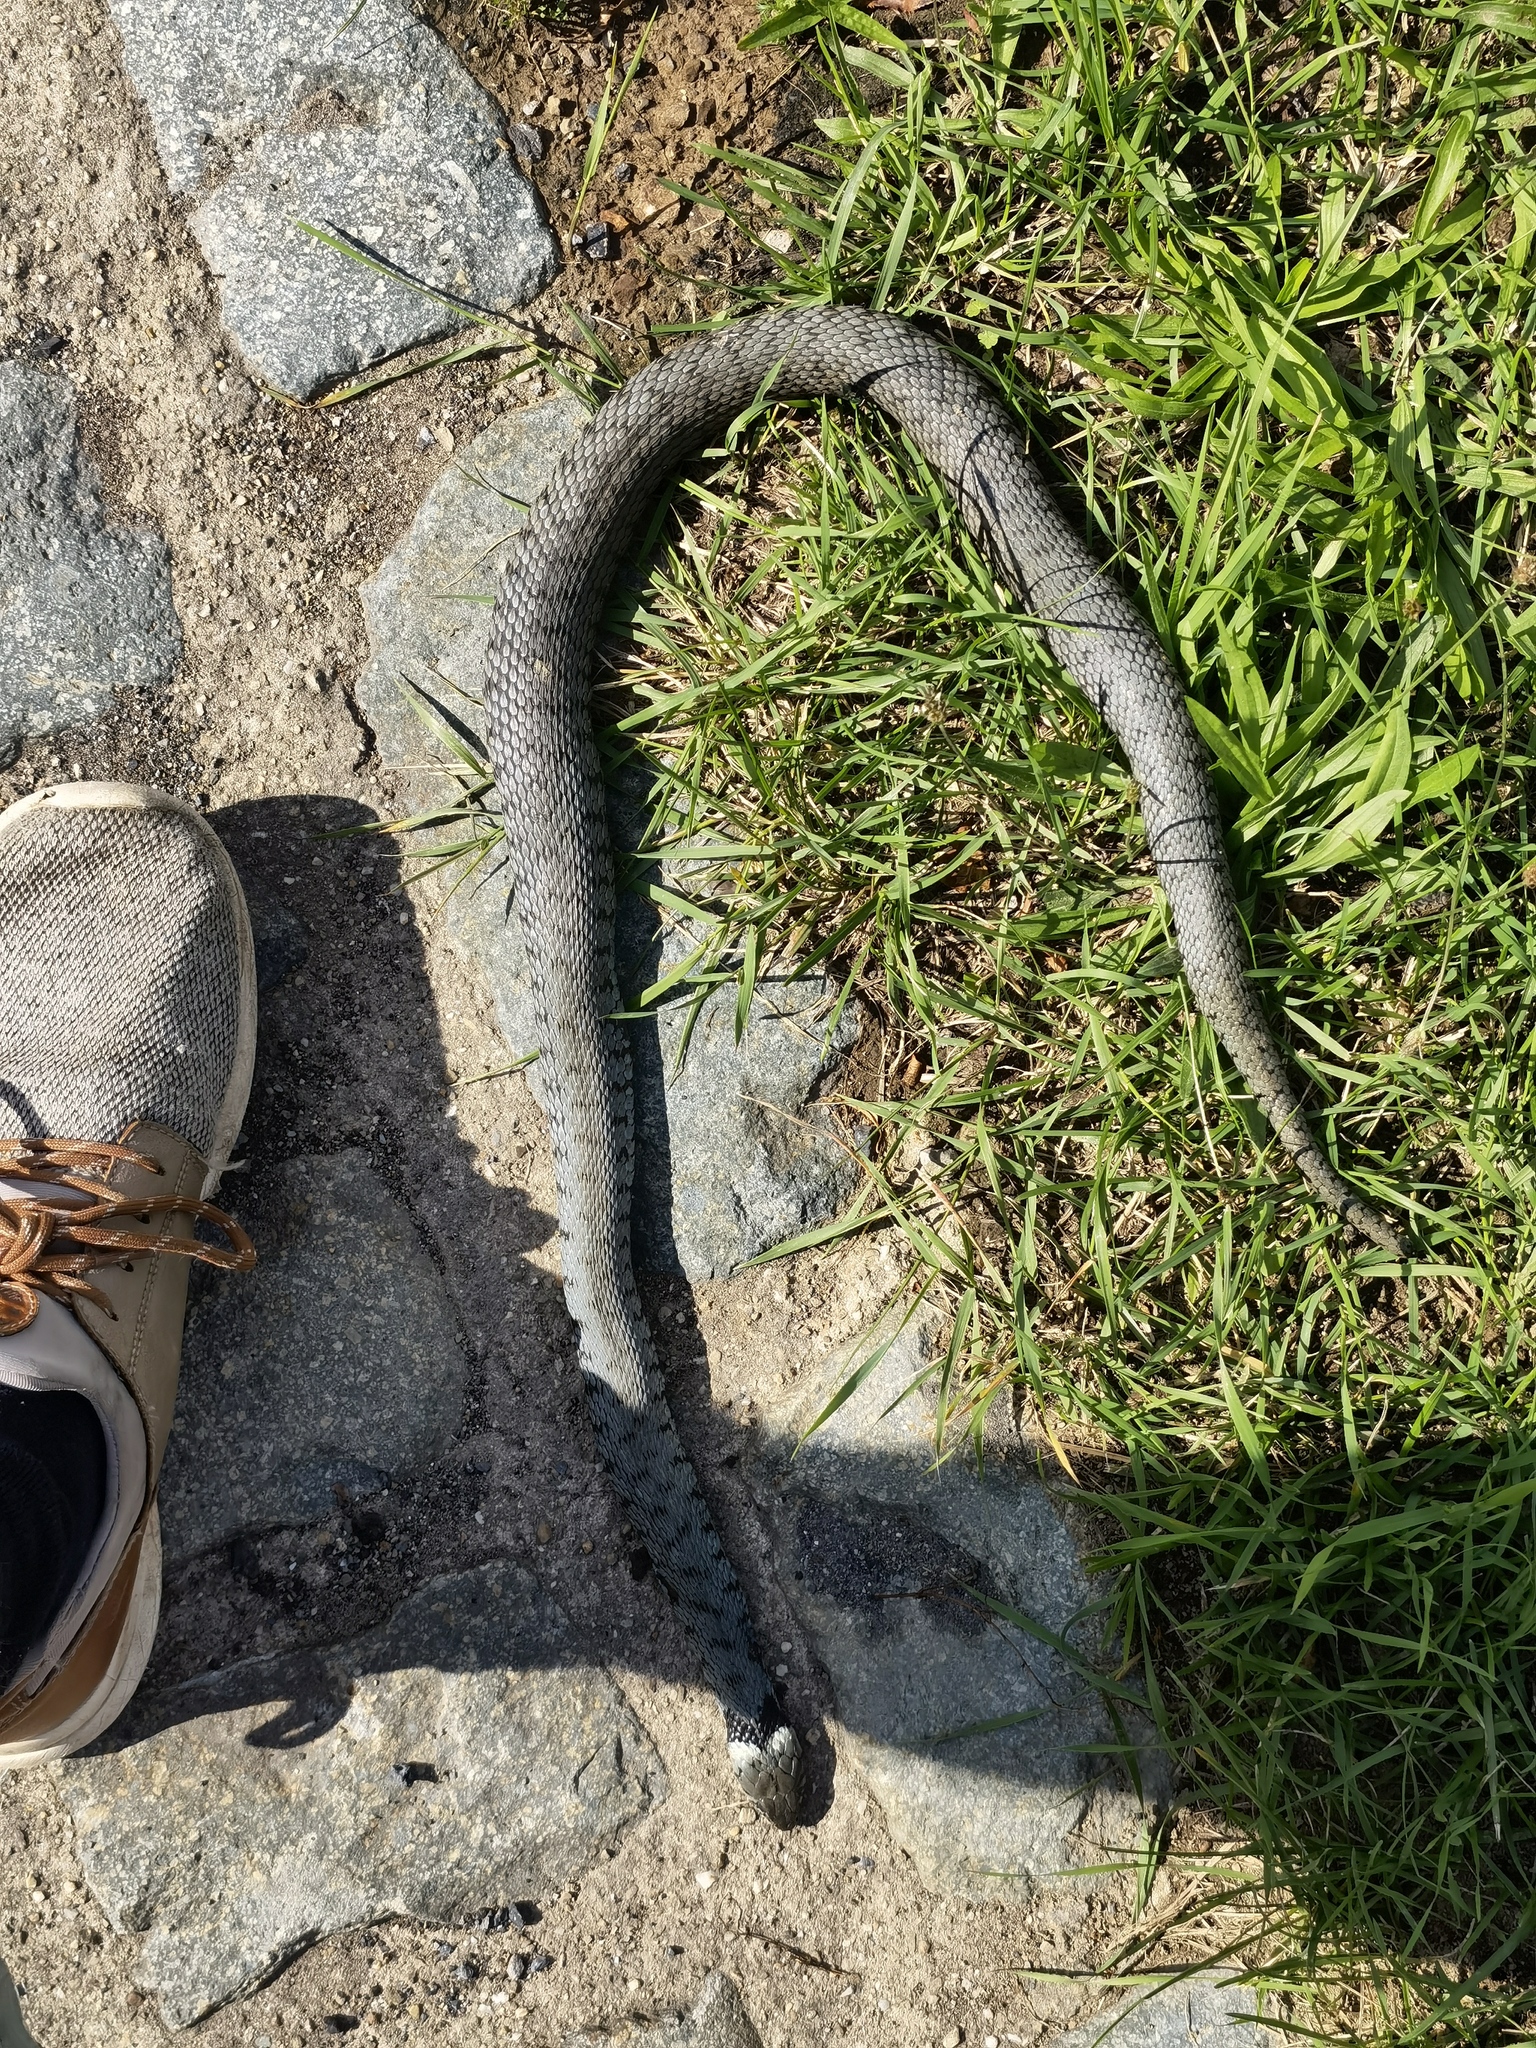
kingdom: Animalia
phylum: Chordata
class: Squamata
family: Colubridae
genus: Natrix
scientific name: Natrix helvetica
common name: Banded grass snake
